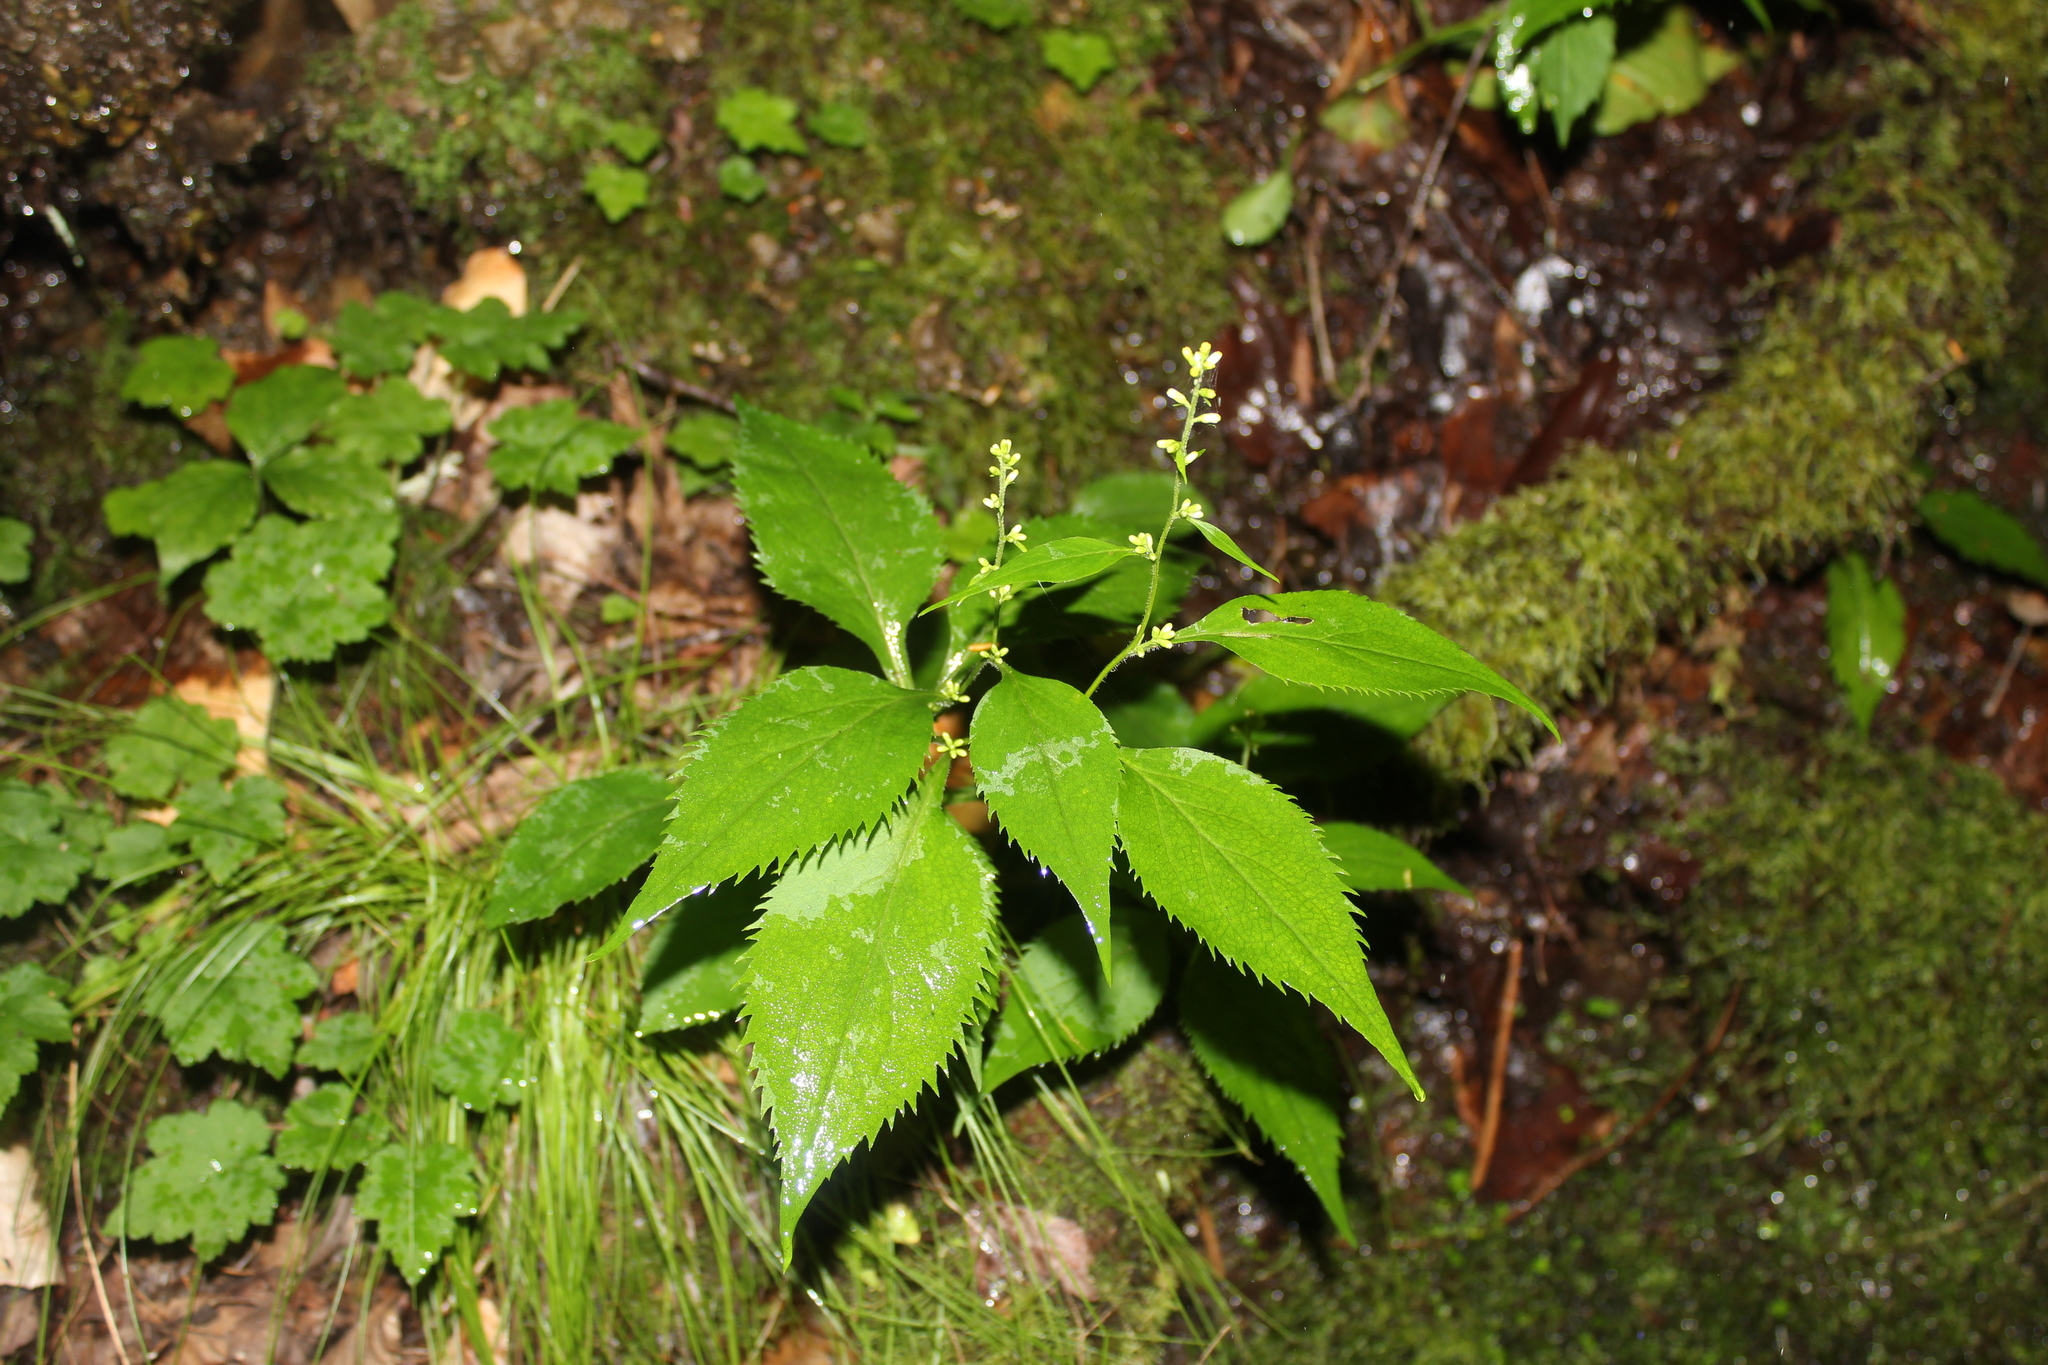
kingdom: Plantae
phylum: Tracheophyta
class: Magnoliopsida
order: Asterales
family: Asteraceae
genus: Solidago
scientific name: Solidago flexicaulis
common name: Zig-zag goldenrod
